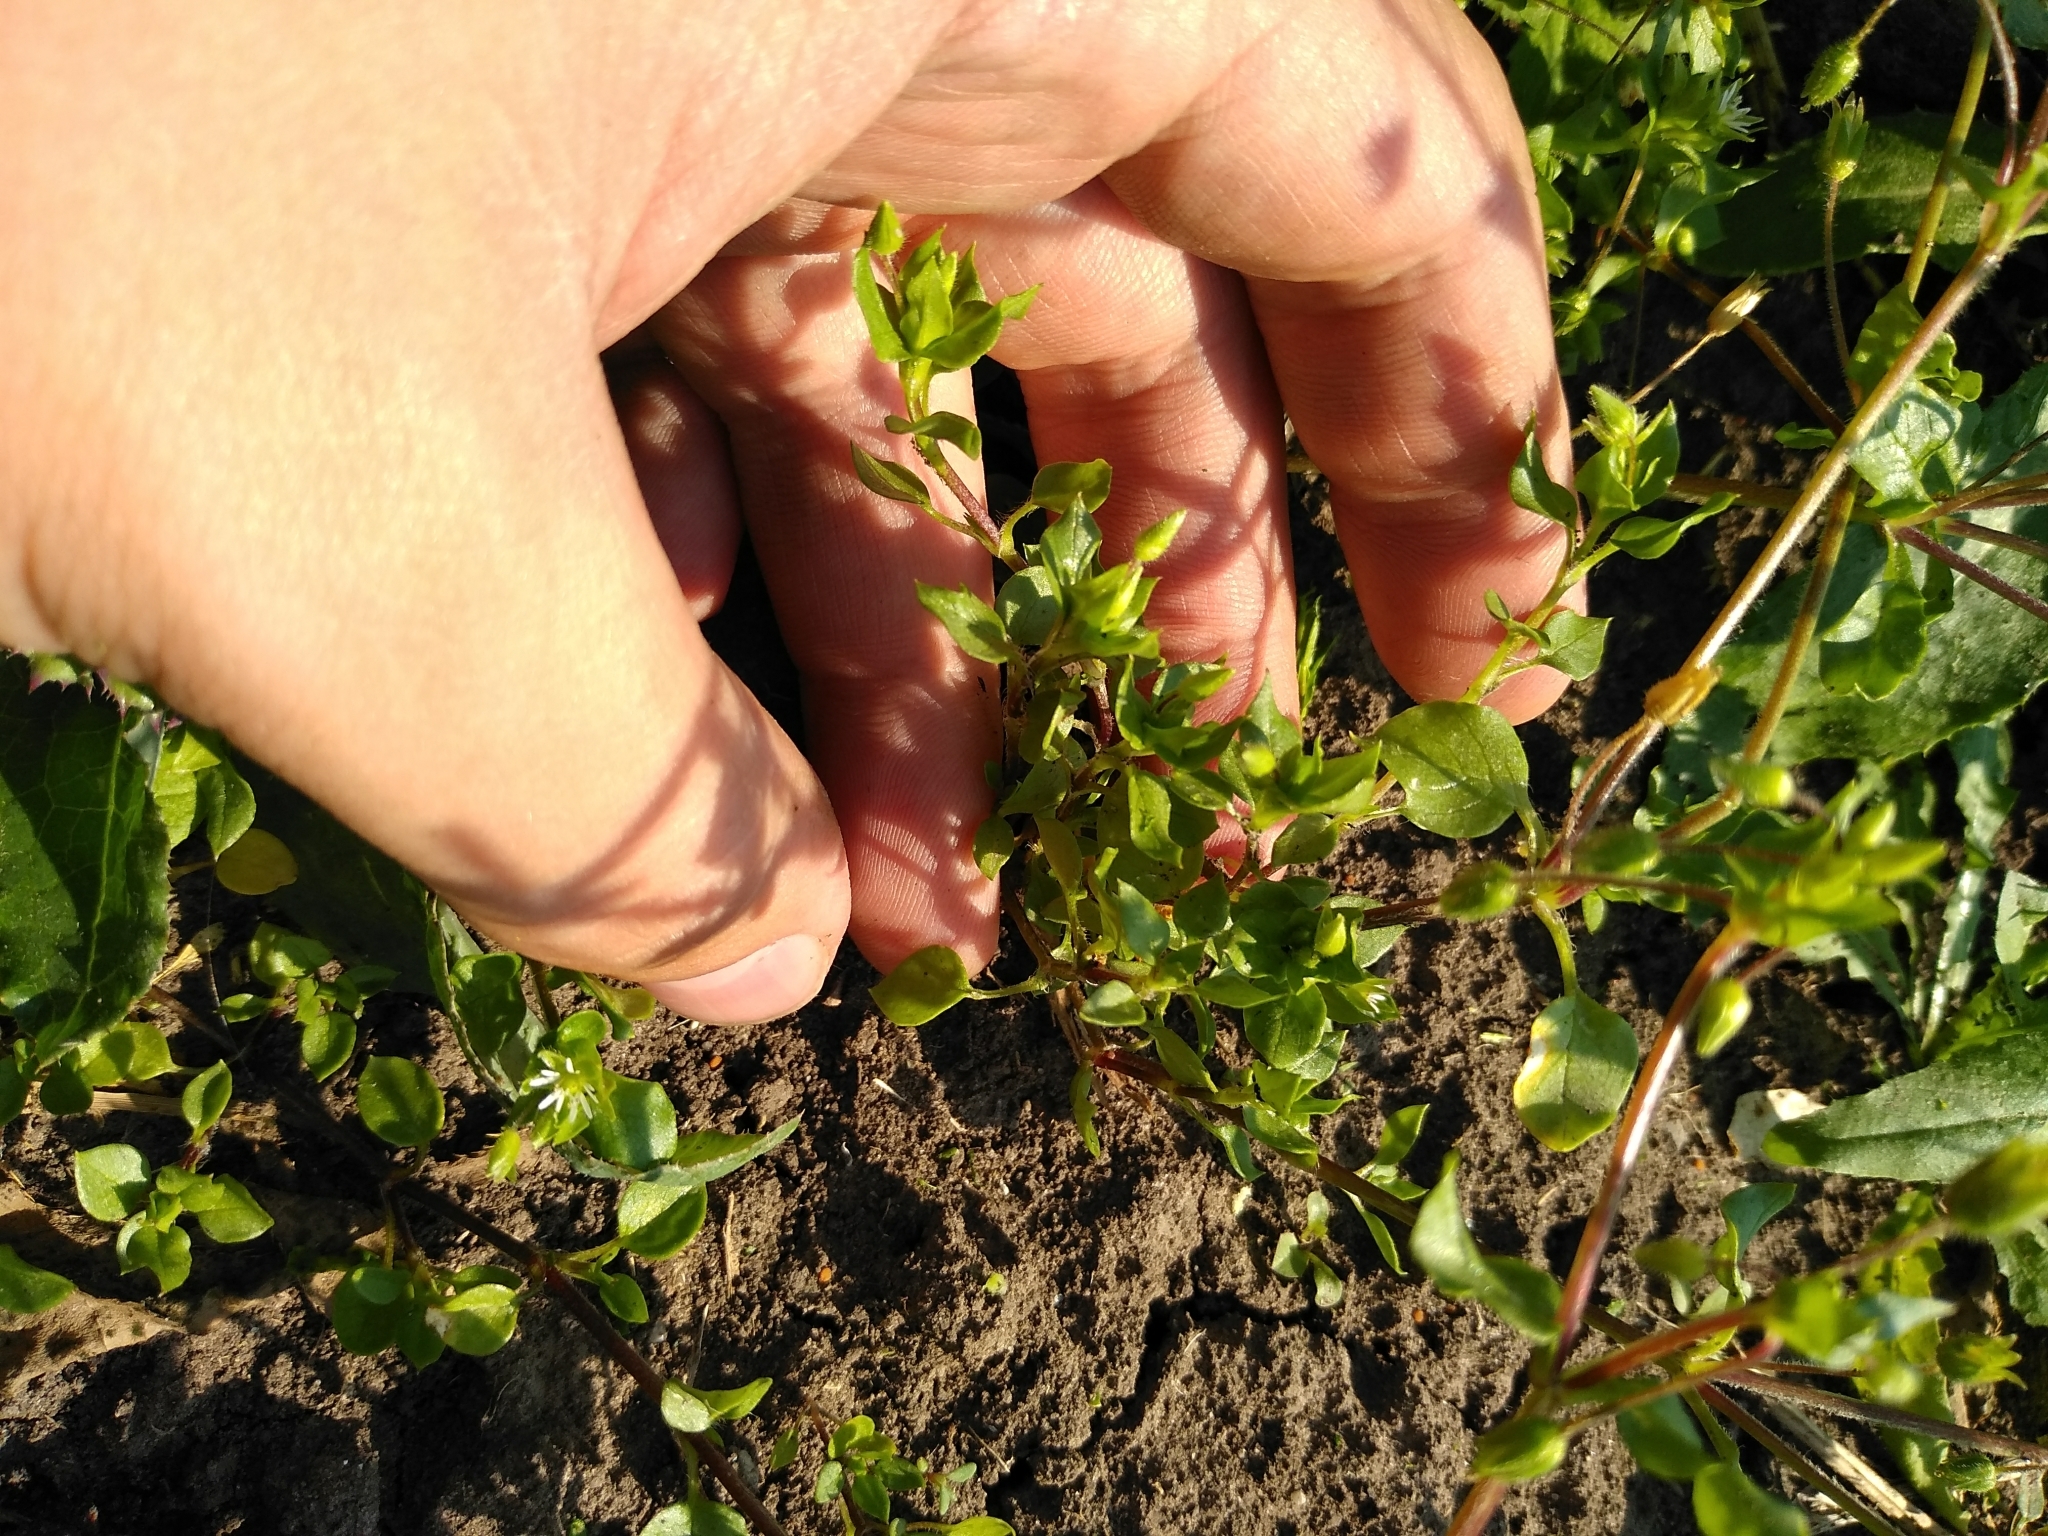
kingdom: Plantae
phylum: Tracheophyta
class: Magnoliopsida
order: Caryophyllales
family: Caryophyllaceae
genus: Stellaria
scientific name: Stellaria media
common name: Common chickweed
